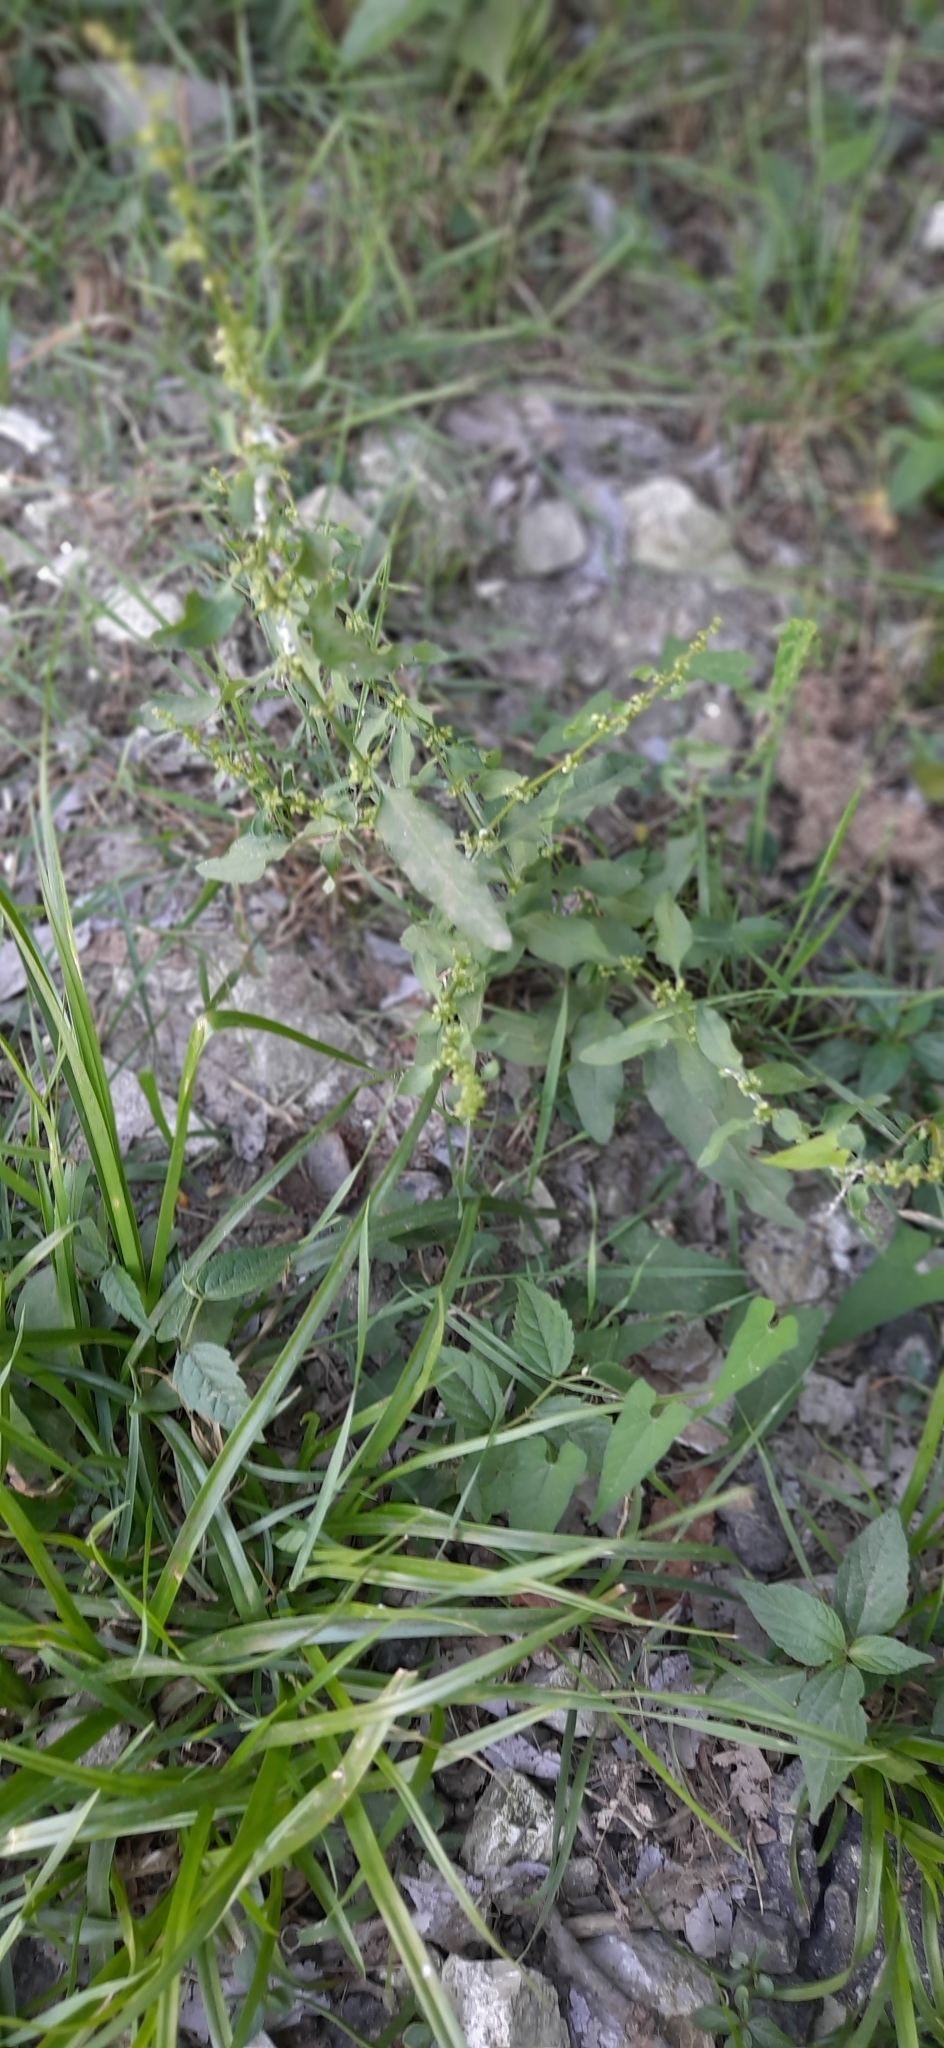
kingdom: Plantae
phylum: Tracheophyta
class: Magnoliopsida
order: Caryophyllales
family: Polygonaceae
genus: Rumex
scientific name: Rumex conglomeratus
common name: Clustered dock
